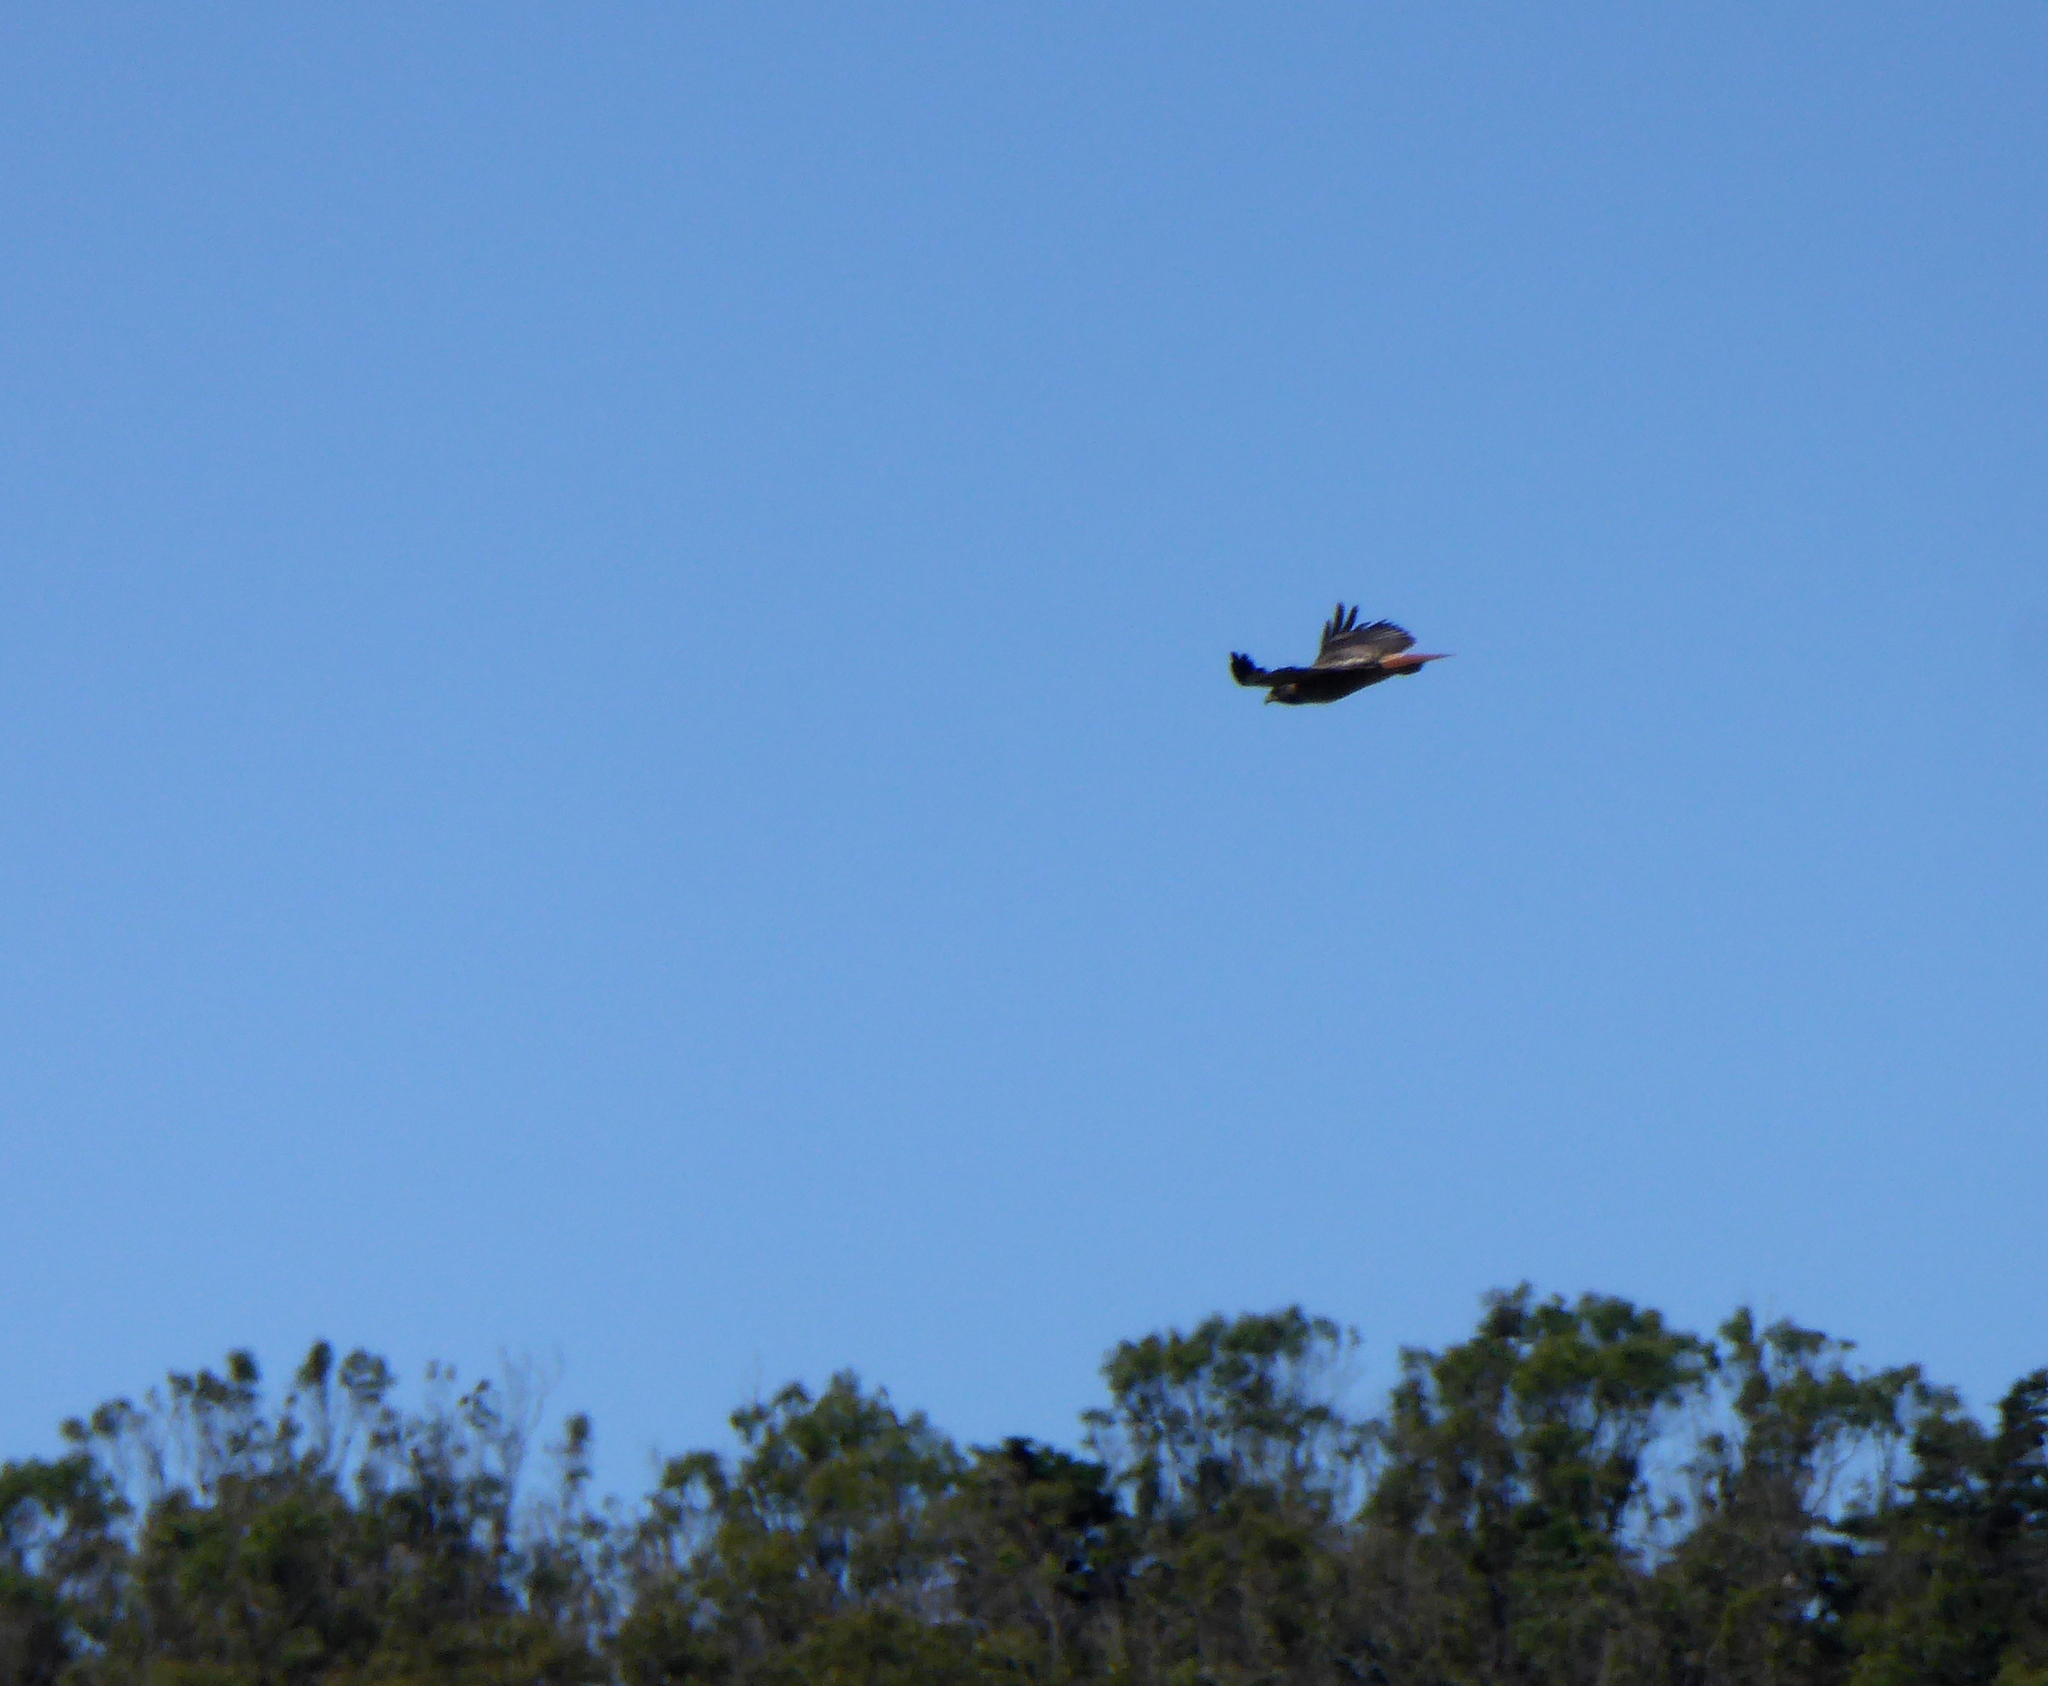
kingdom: Animalia
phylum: Chordata
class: Aves
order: Accipitriformes
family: Accipitridae
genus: Buteo
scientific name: Buteo jamaicensis
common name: Red-tailed hawk
